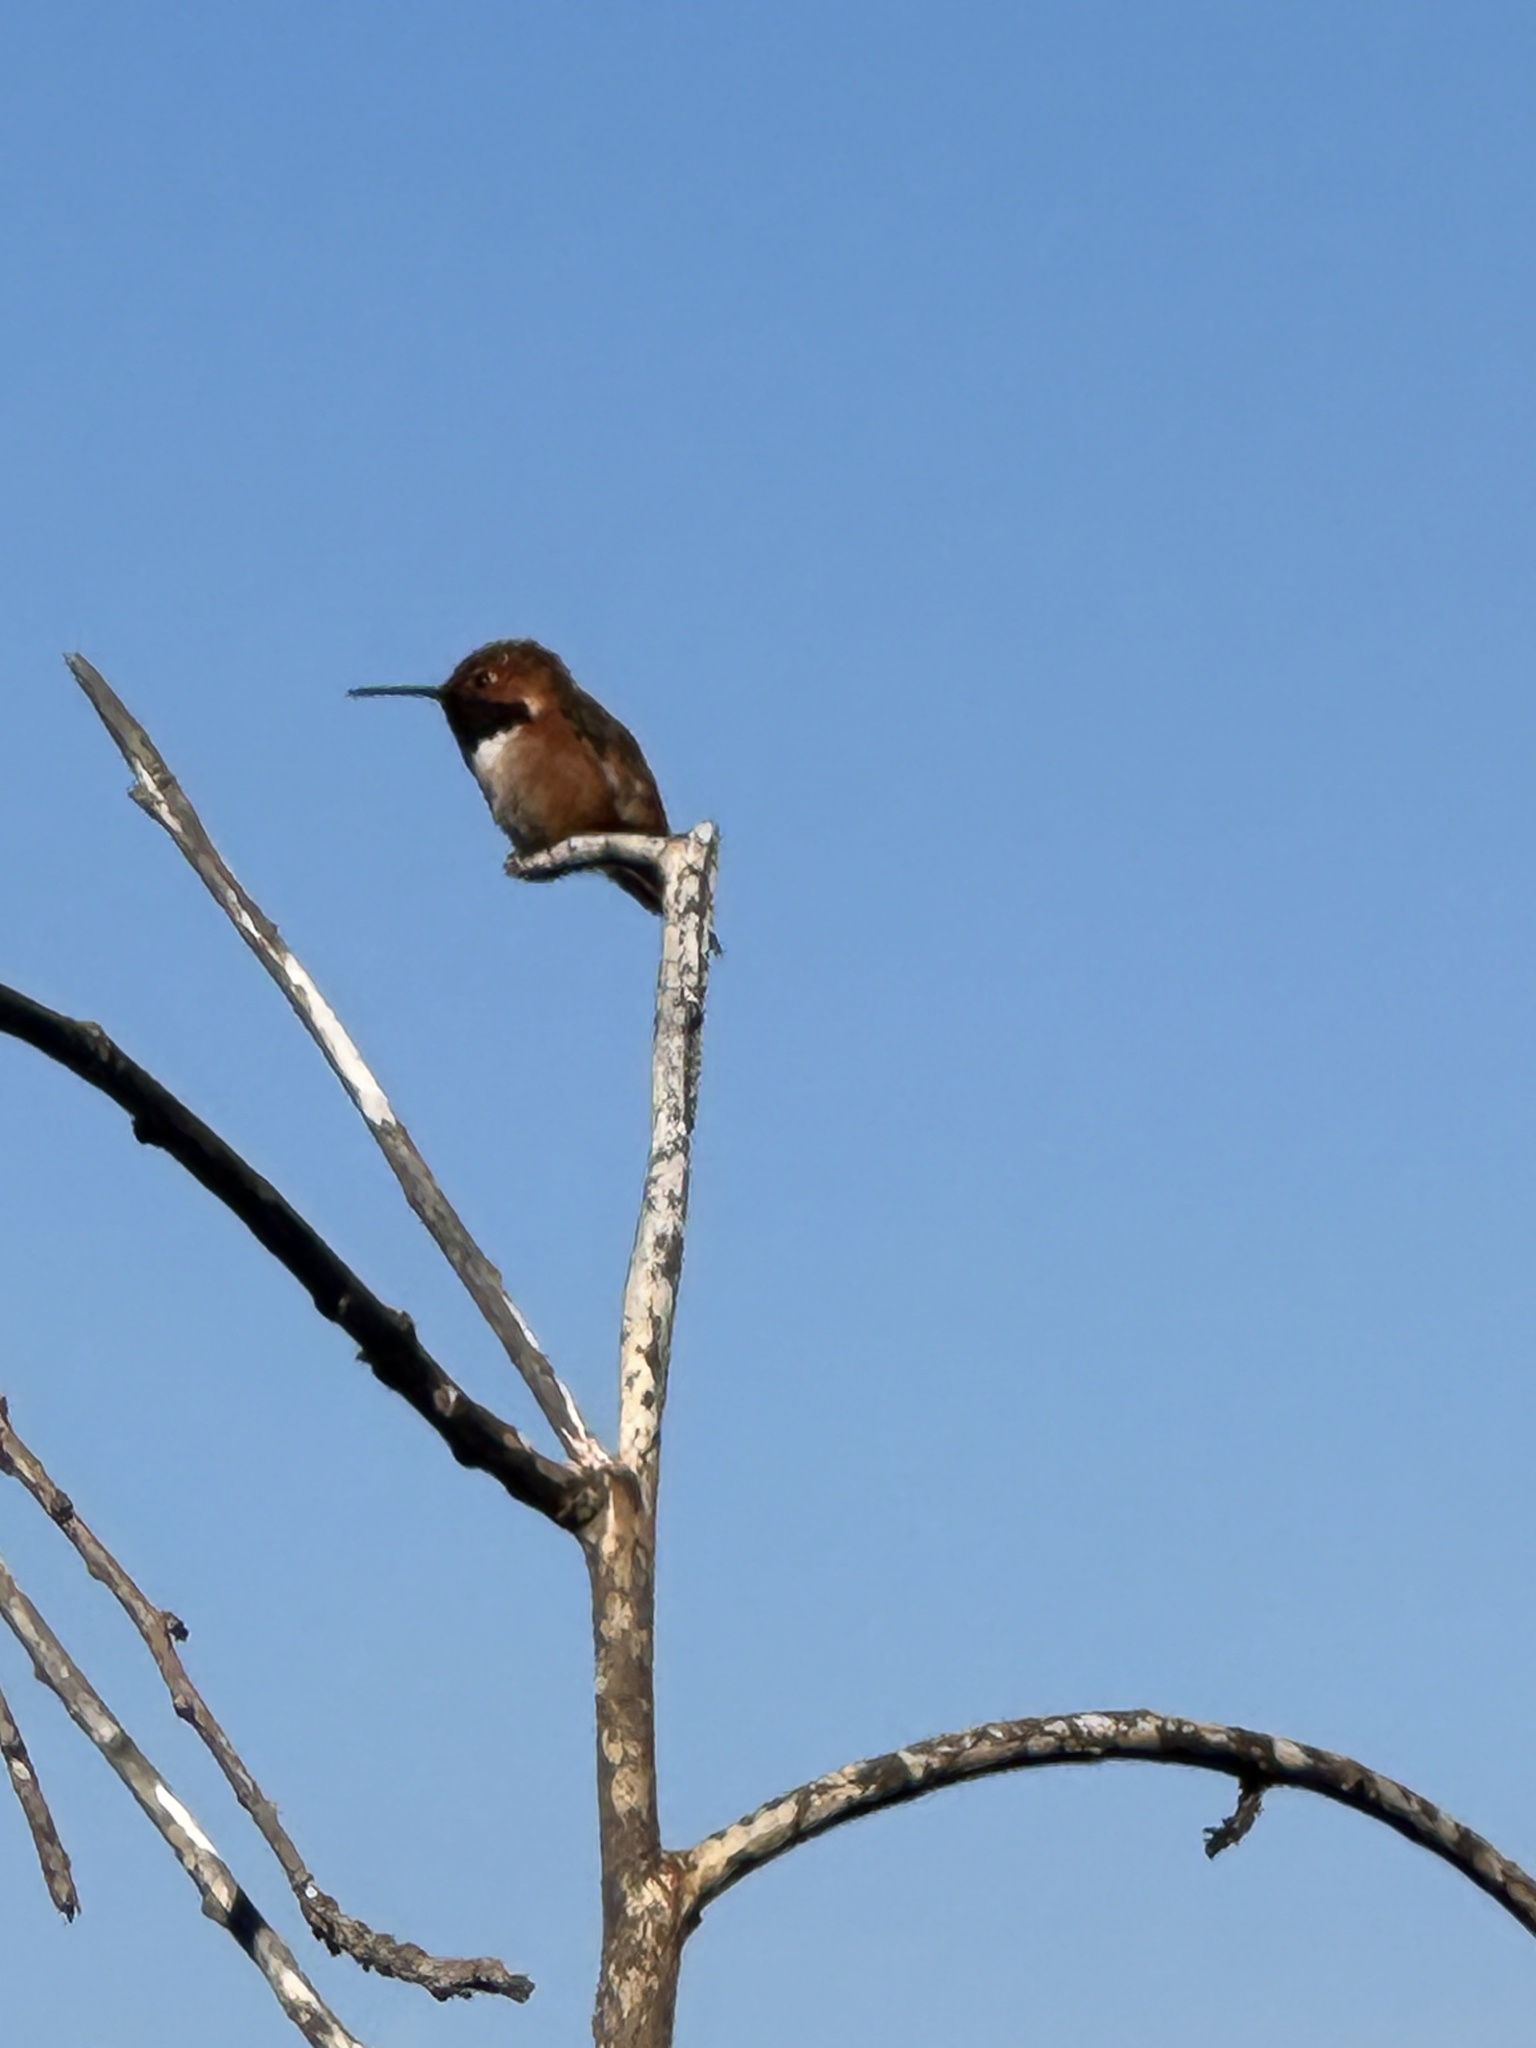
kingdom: Animalia
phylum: Chordata
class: Aves
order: Apodiformes
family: Trochilidae
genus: Selasphorus
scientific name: Selasphorus sasin
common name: Allen's hummingbird
